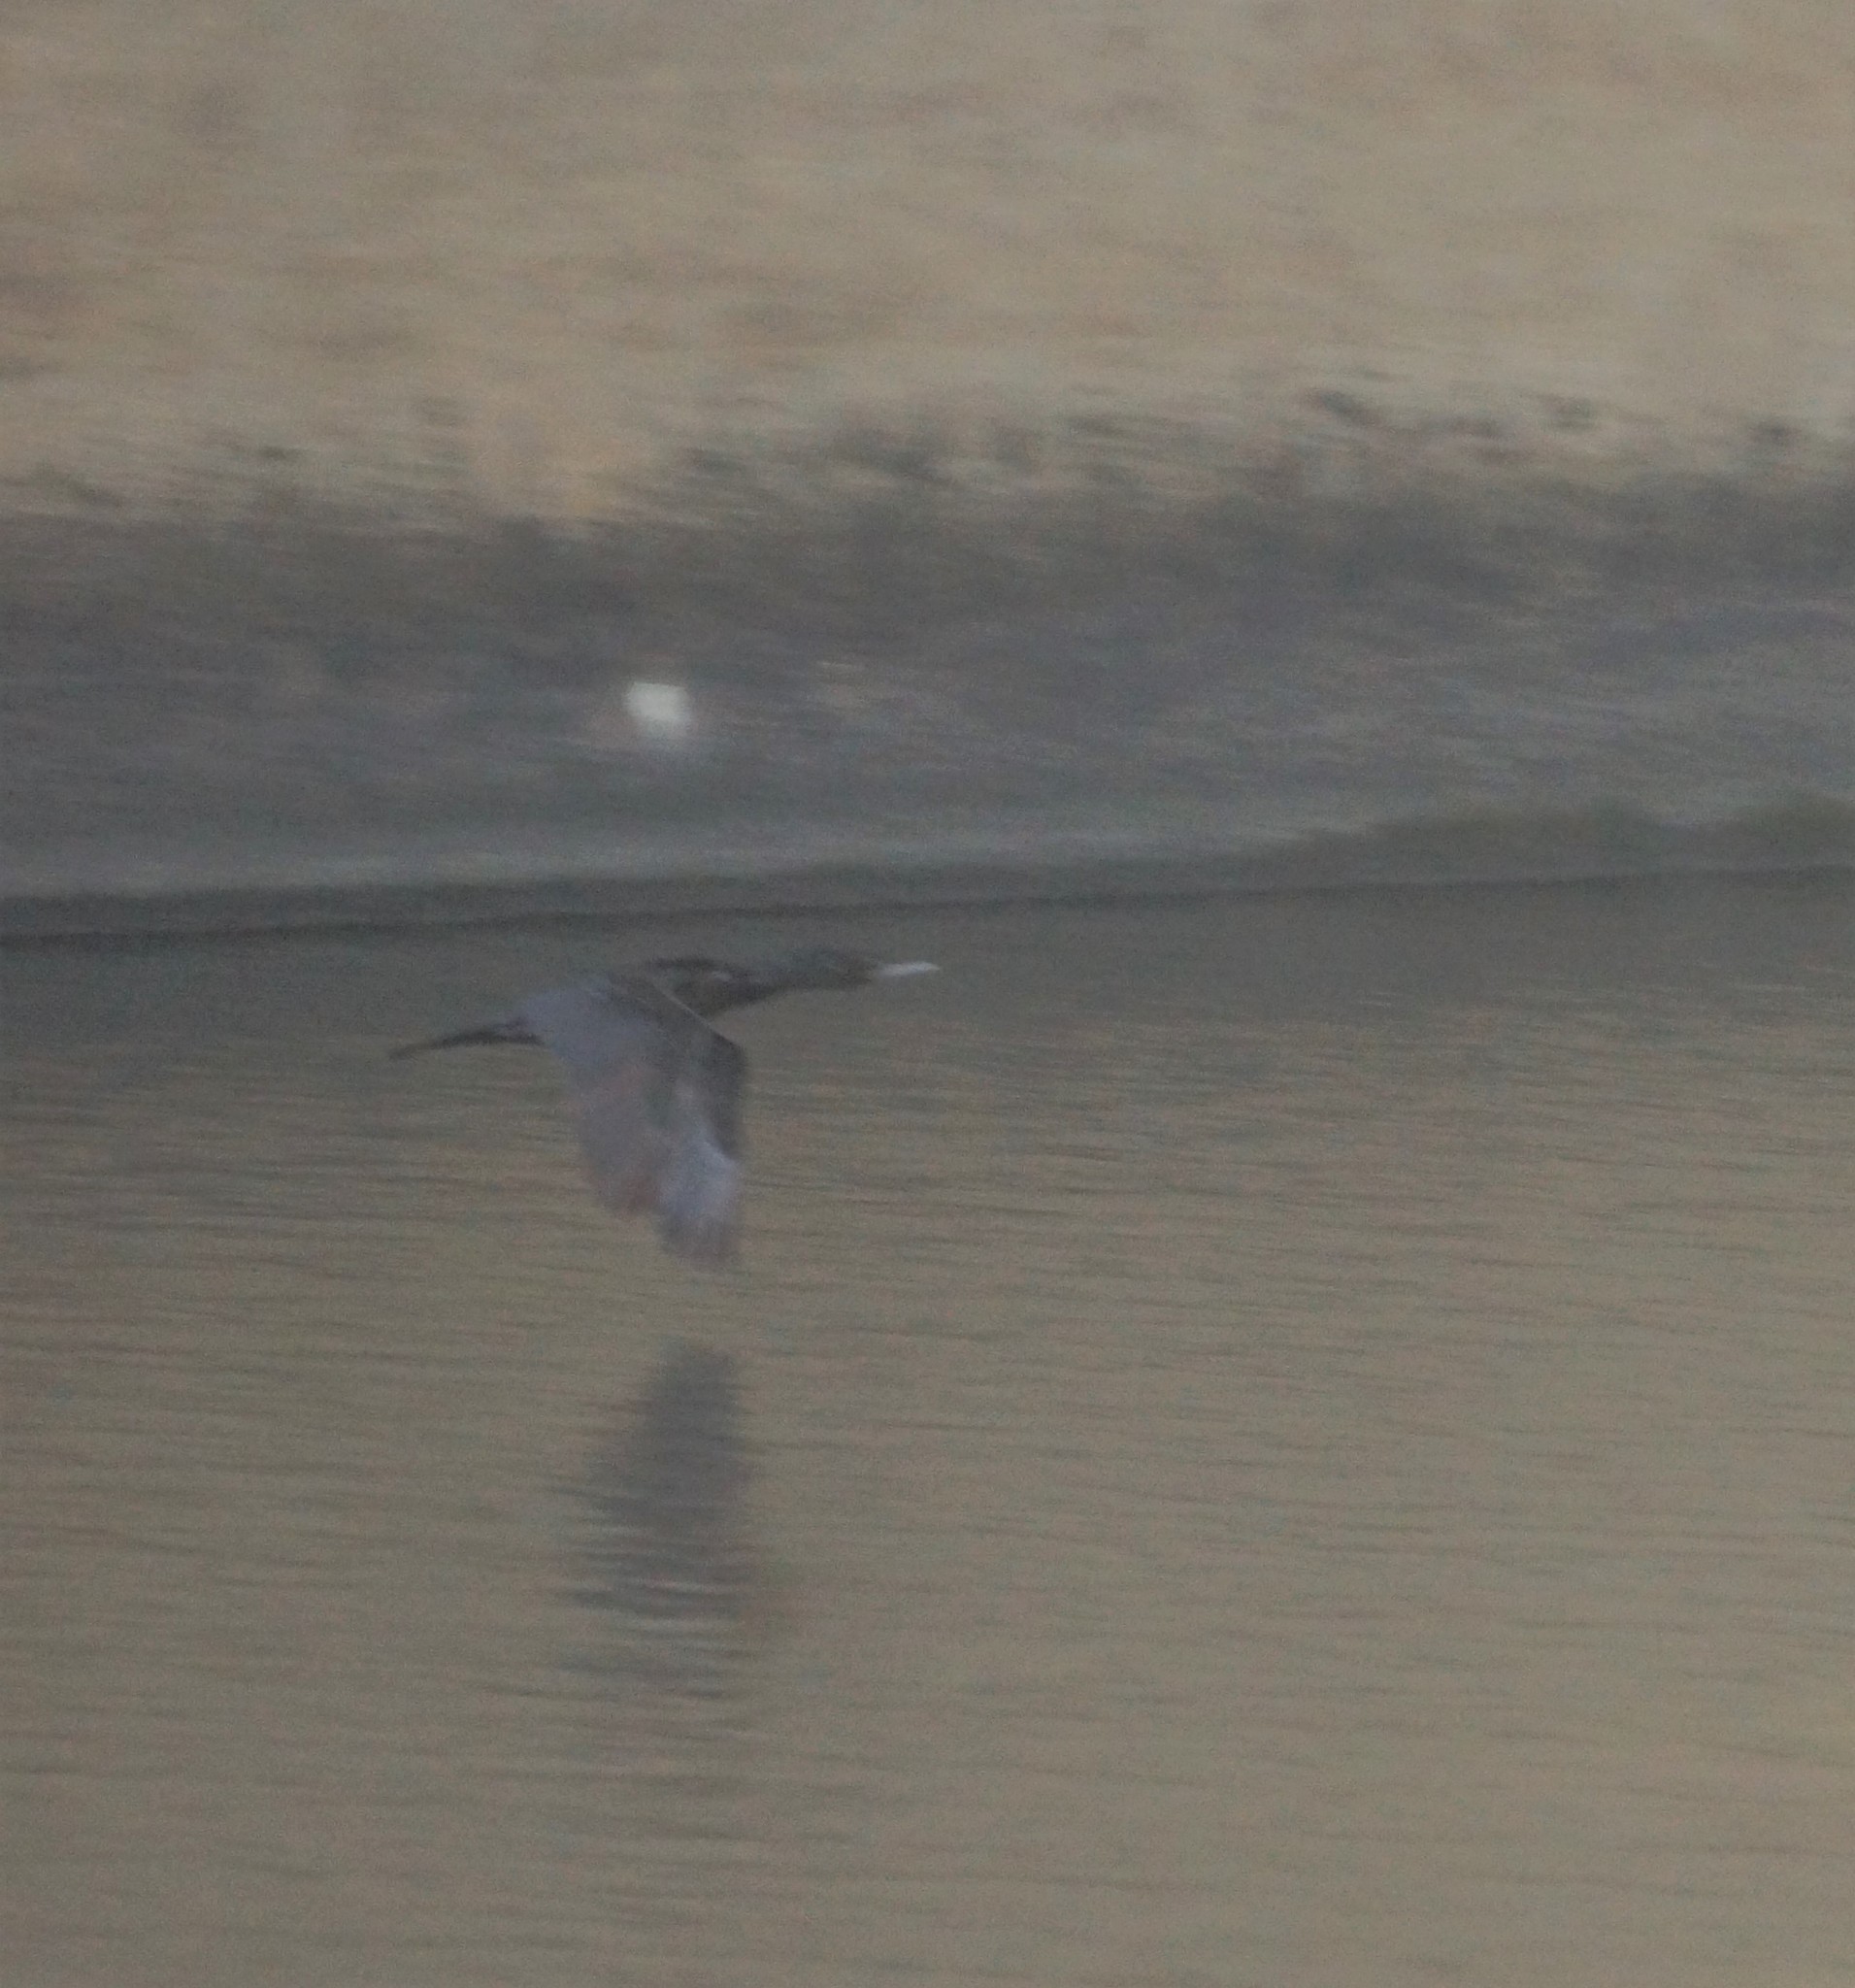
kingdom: Animalia
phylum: Chordata
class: Aves
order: Suliformes
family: Phalacrocoracidae
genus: Phalacrocorax
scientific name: Phalacrocorax carbo
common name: Great cormorant
